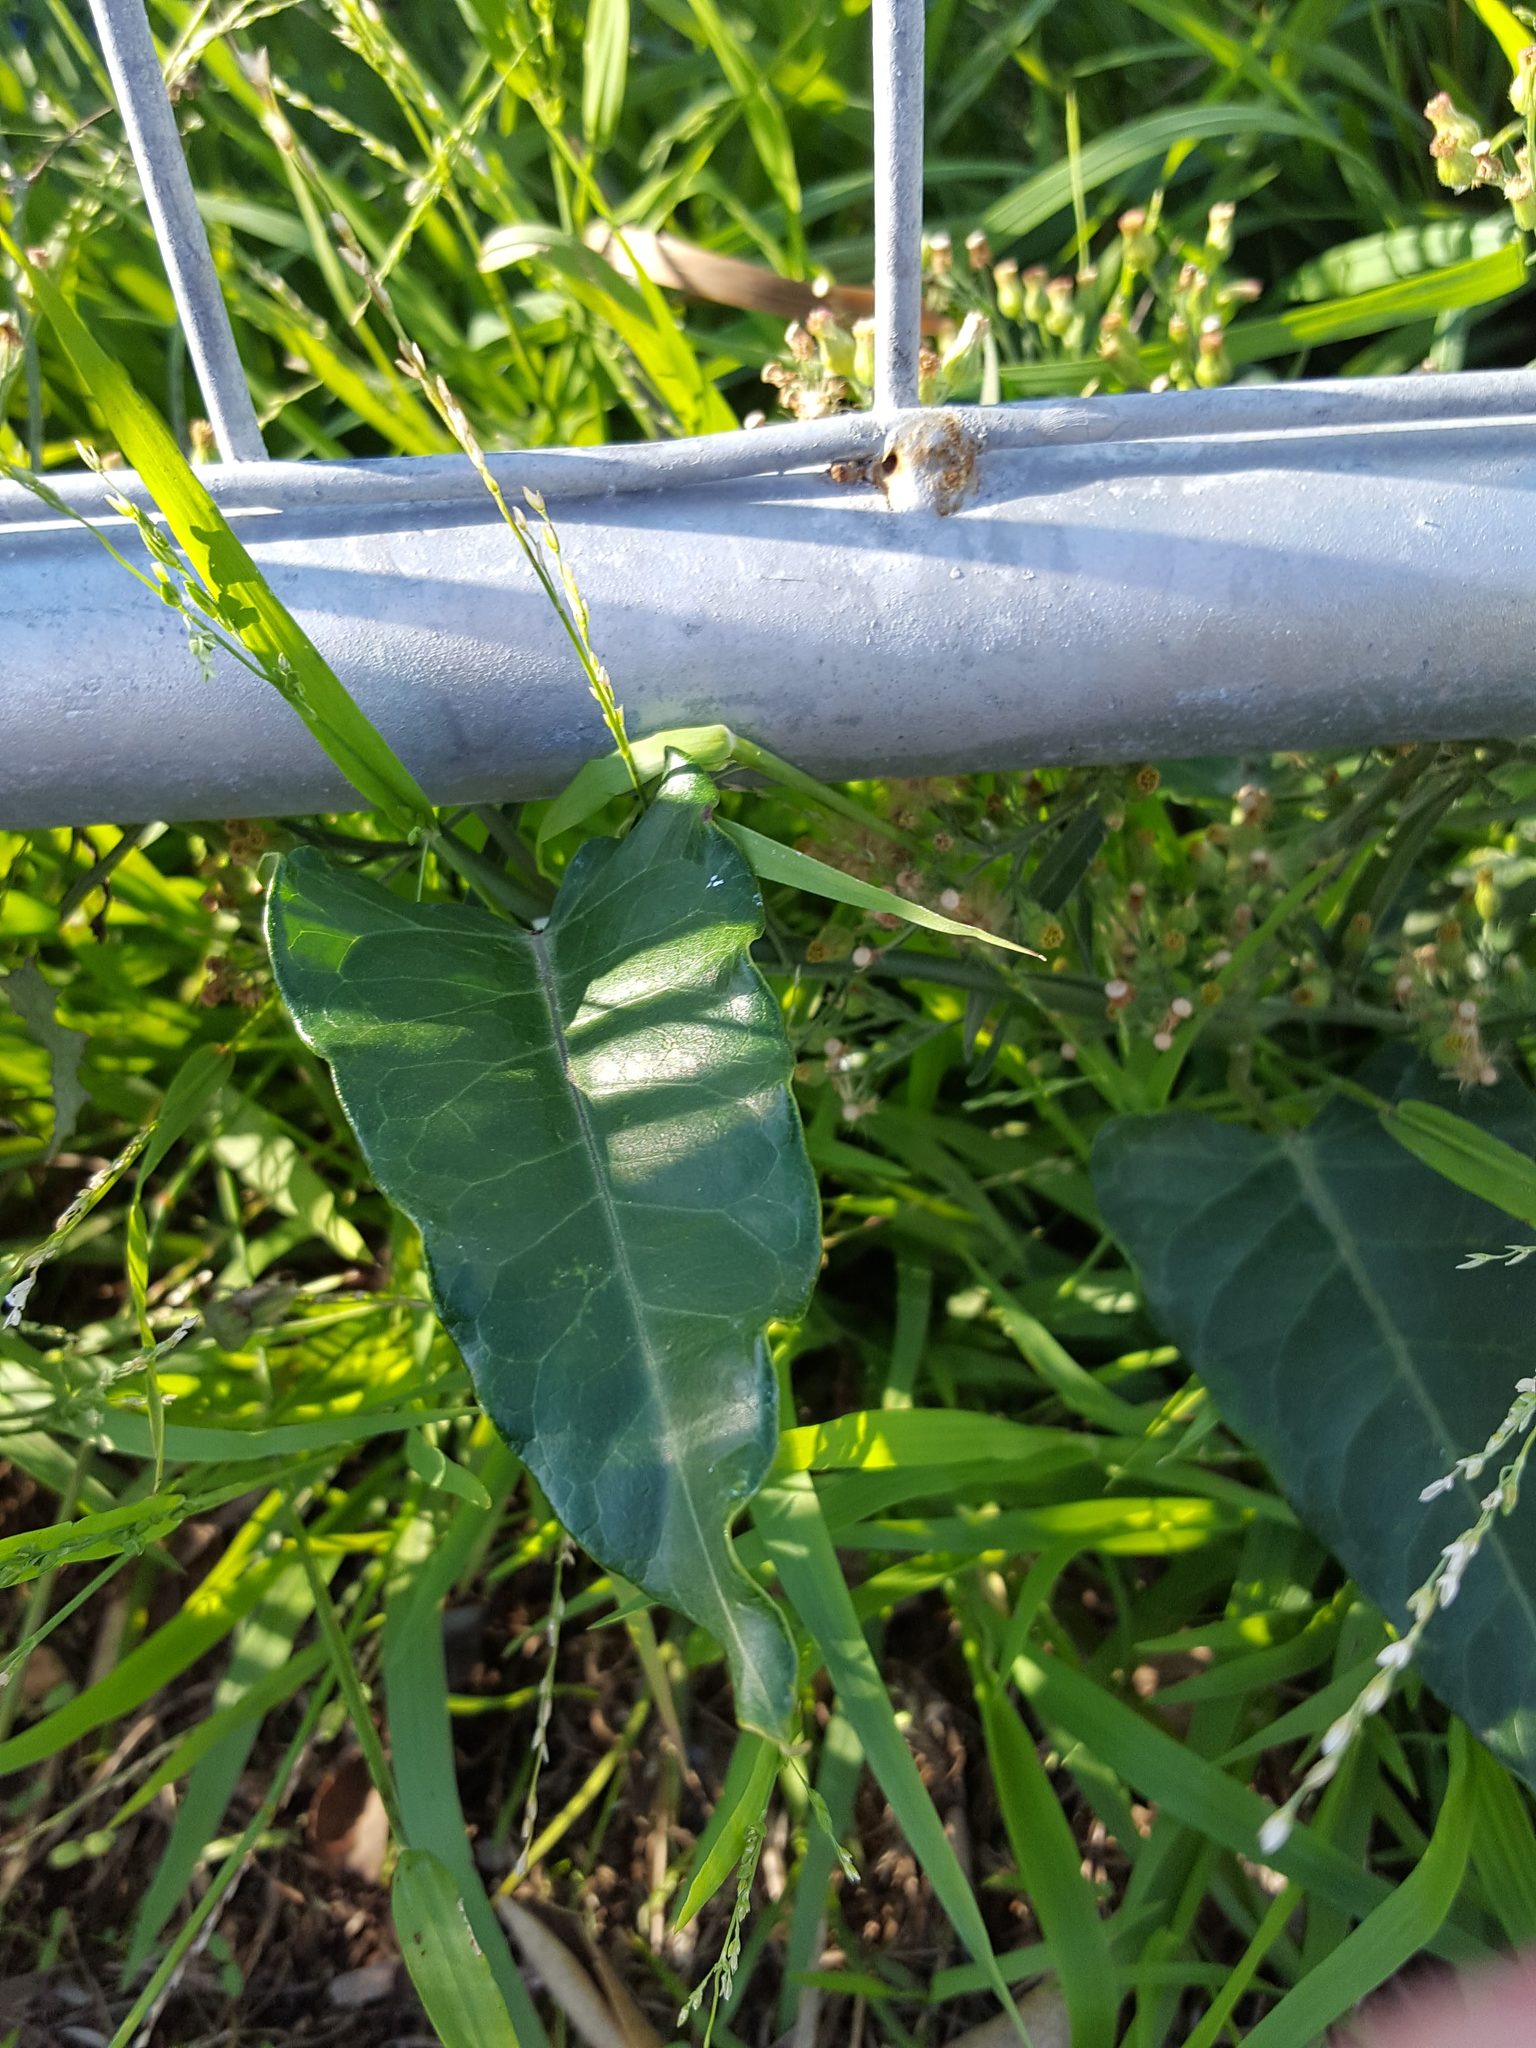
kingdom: Plantae
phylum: Tracheophyta
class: Magnoliopsida
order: Gentianales
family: Apocynaceae
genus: Araujia
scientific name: Araujia sericifera
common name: White bladderflower
